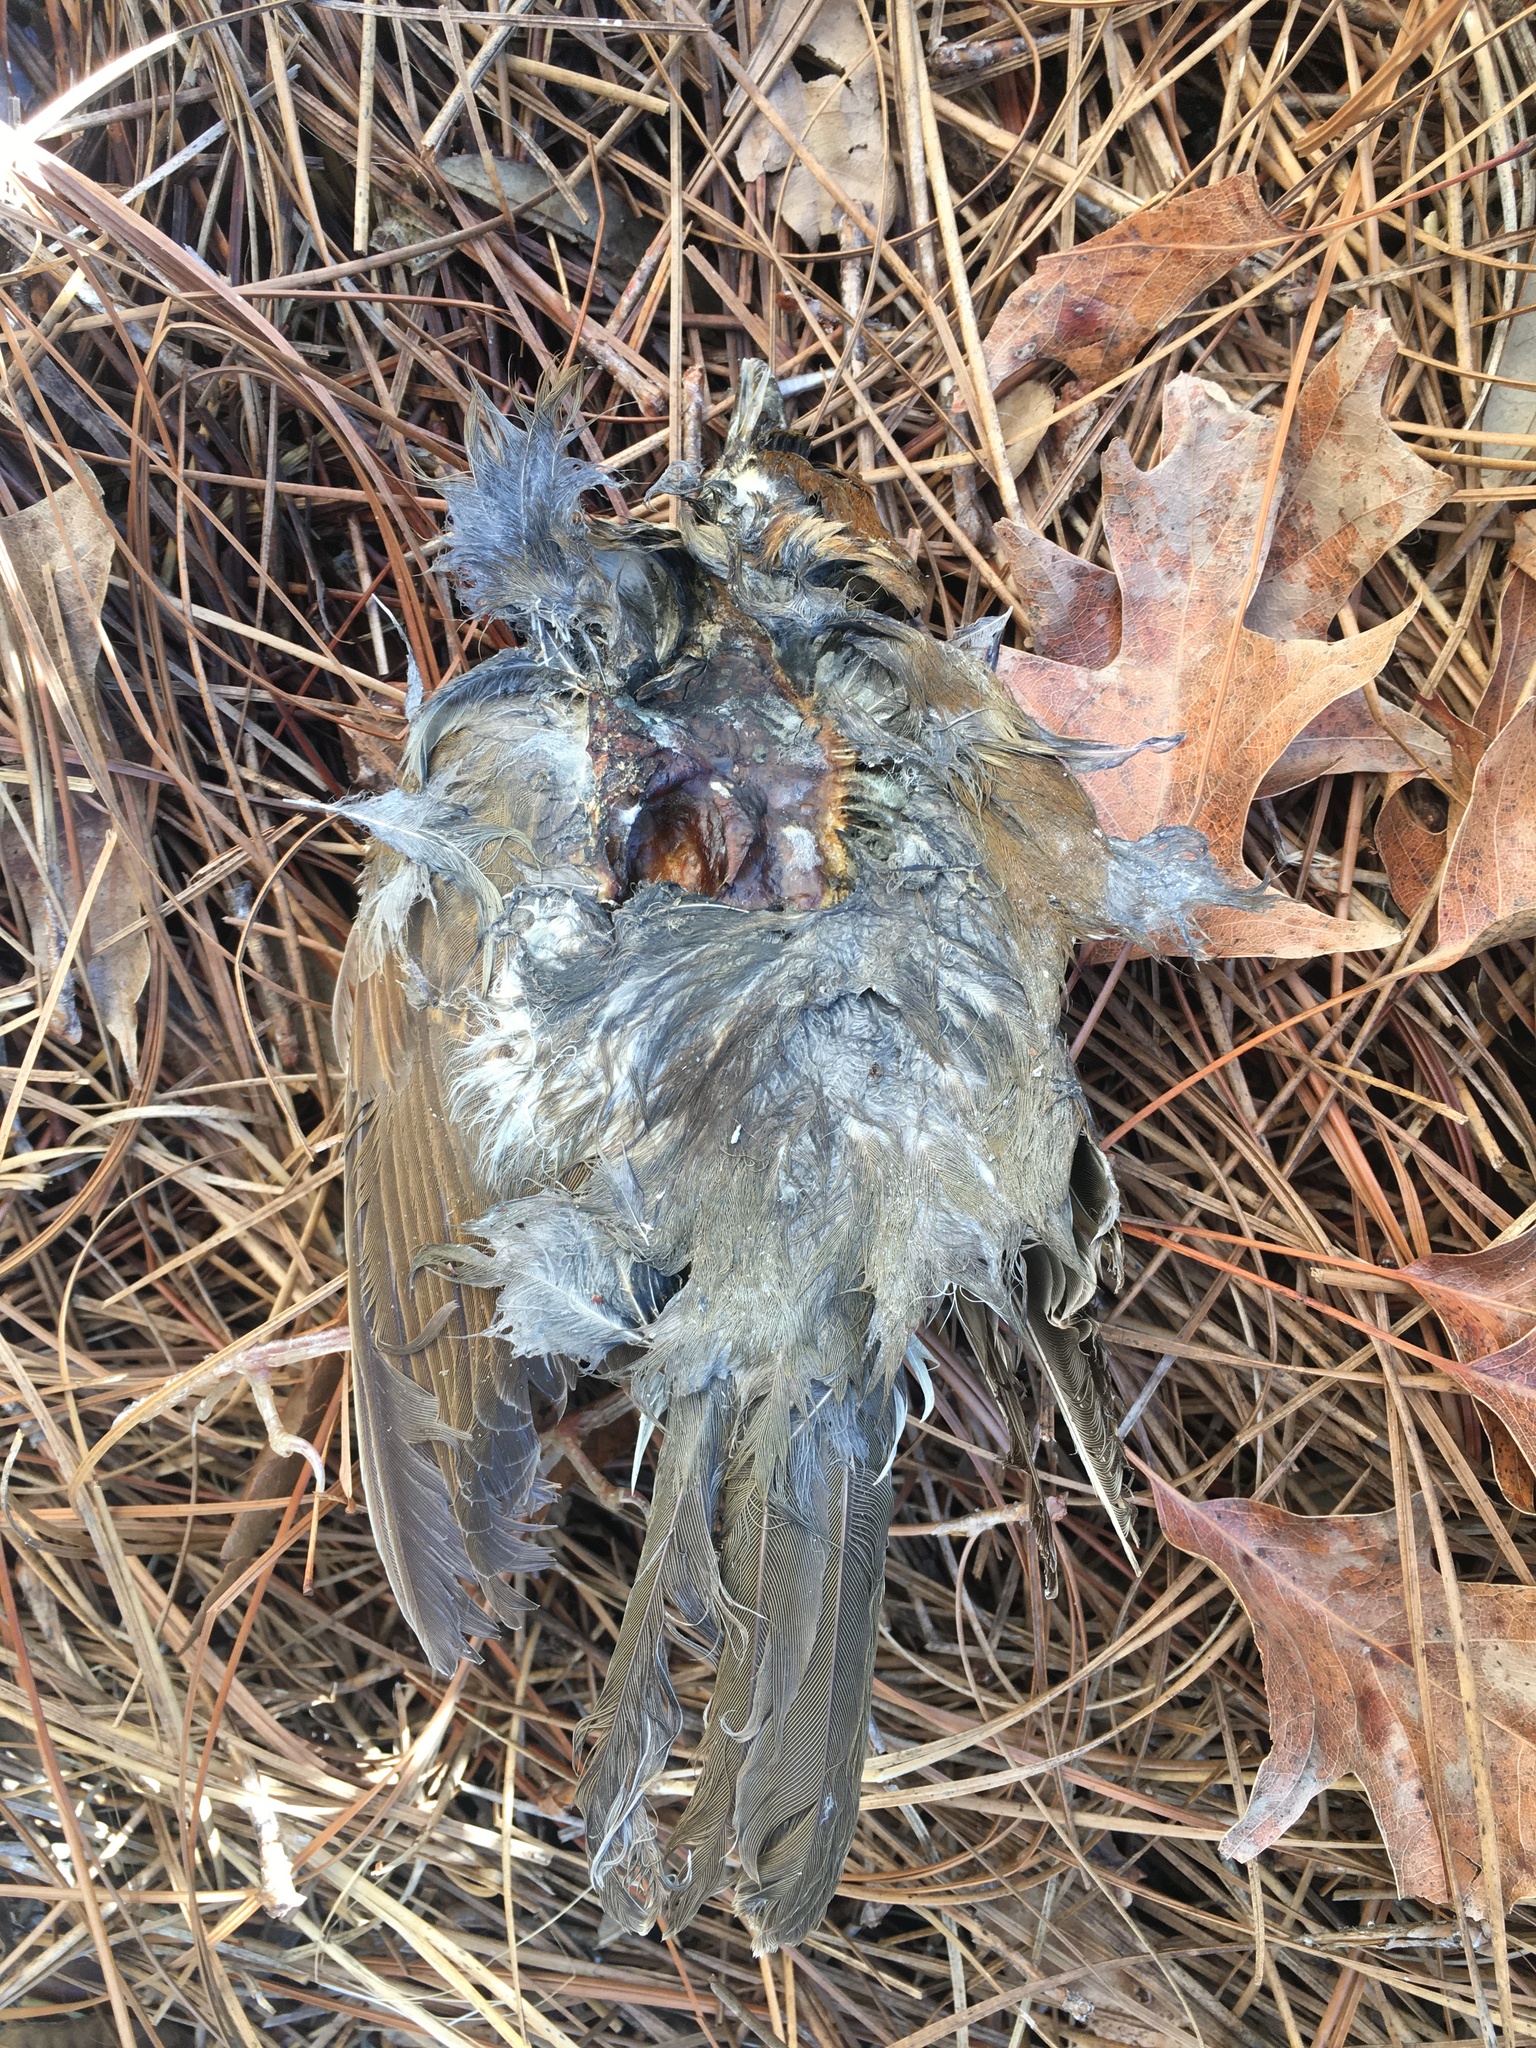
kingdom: Animalia
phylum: Chordata
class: Aves
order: Passeriformes
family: Turdidae
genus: Hylocichla
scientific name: Hylocichla mustelina
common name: Wood thrush
